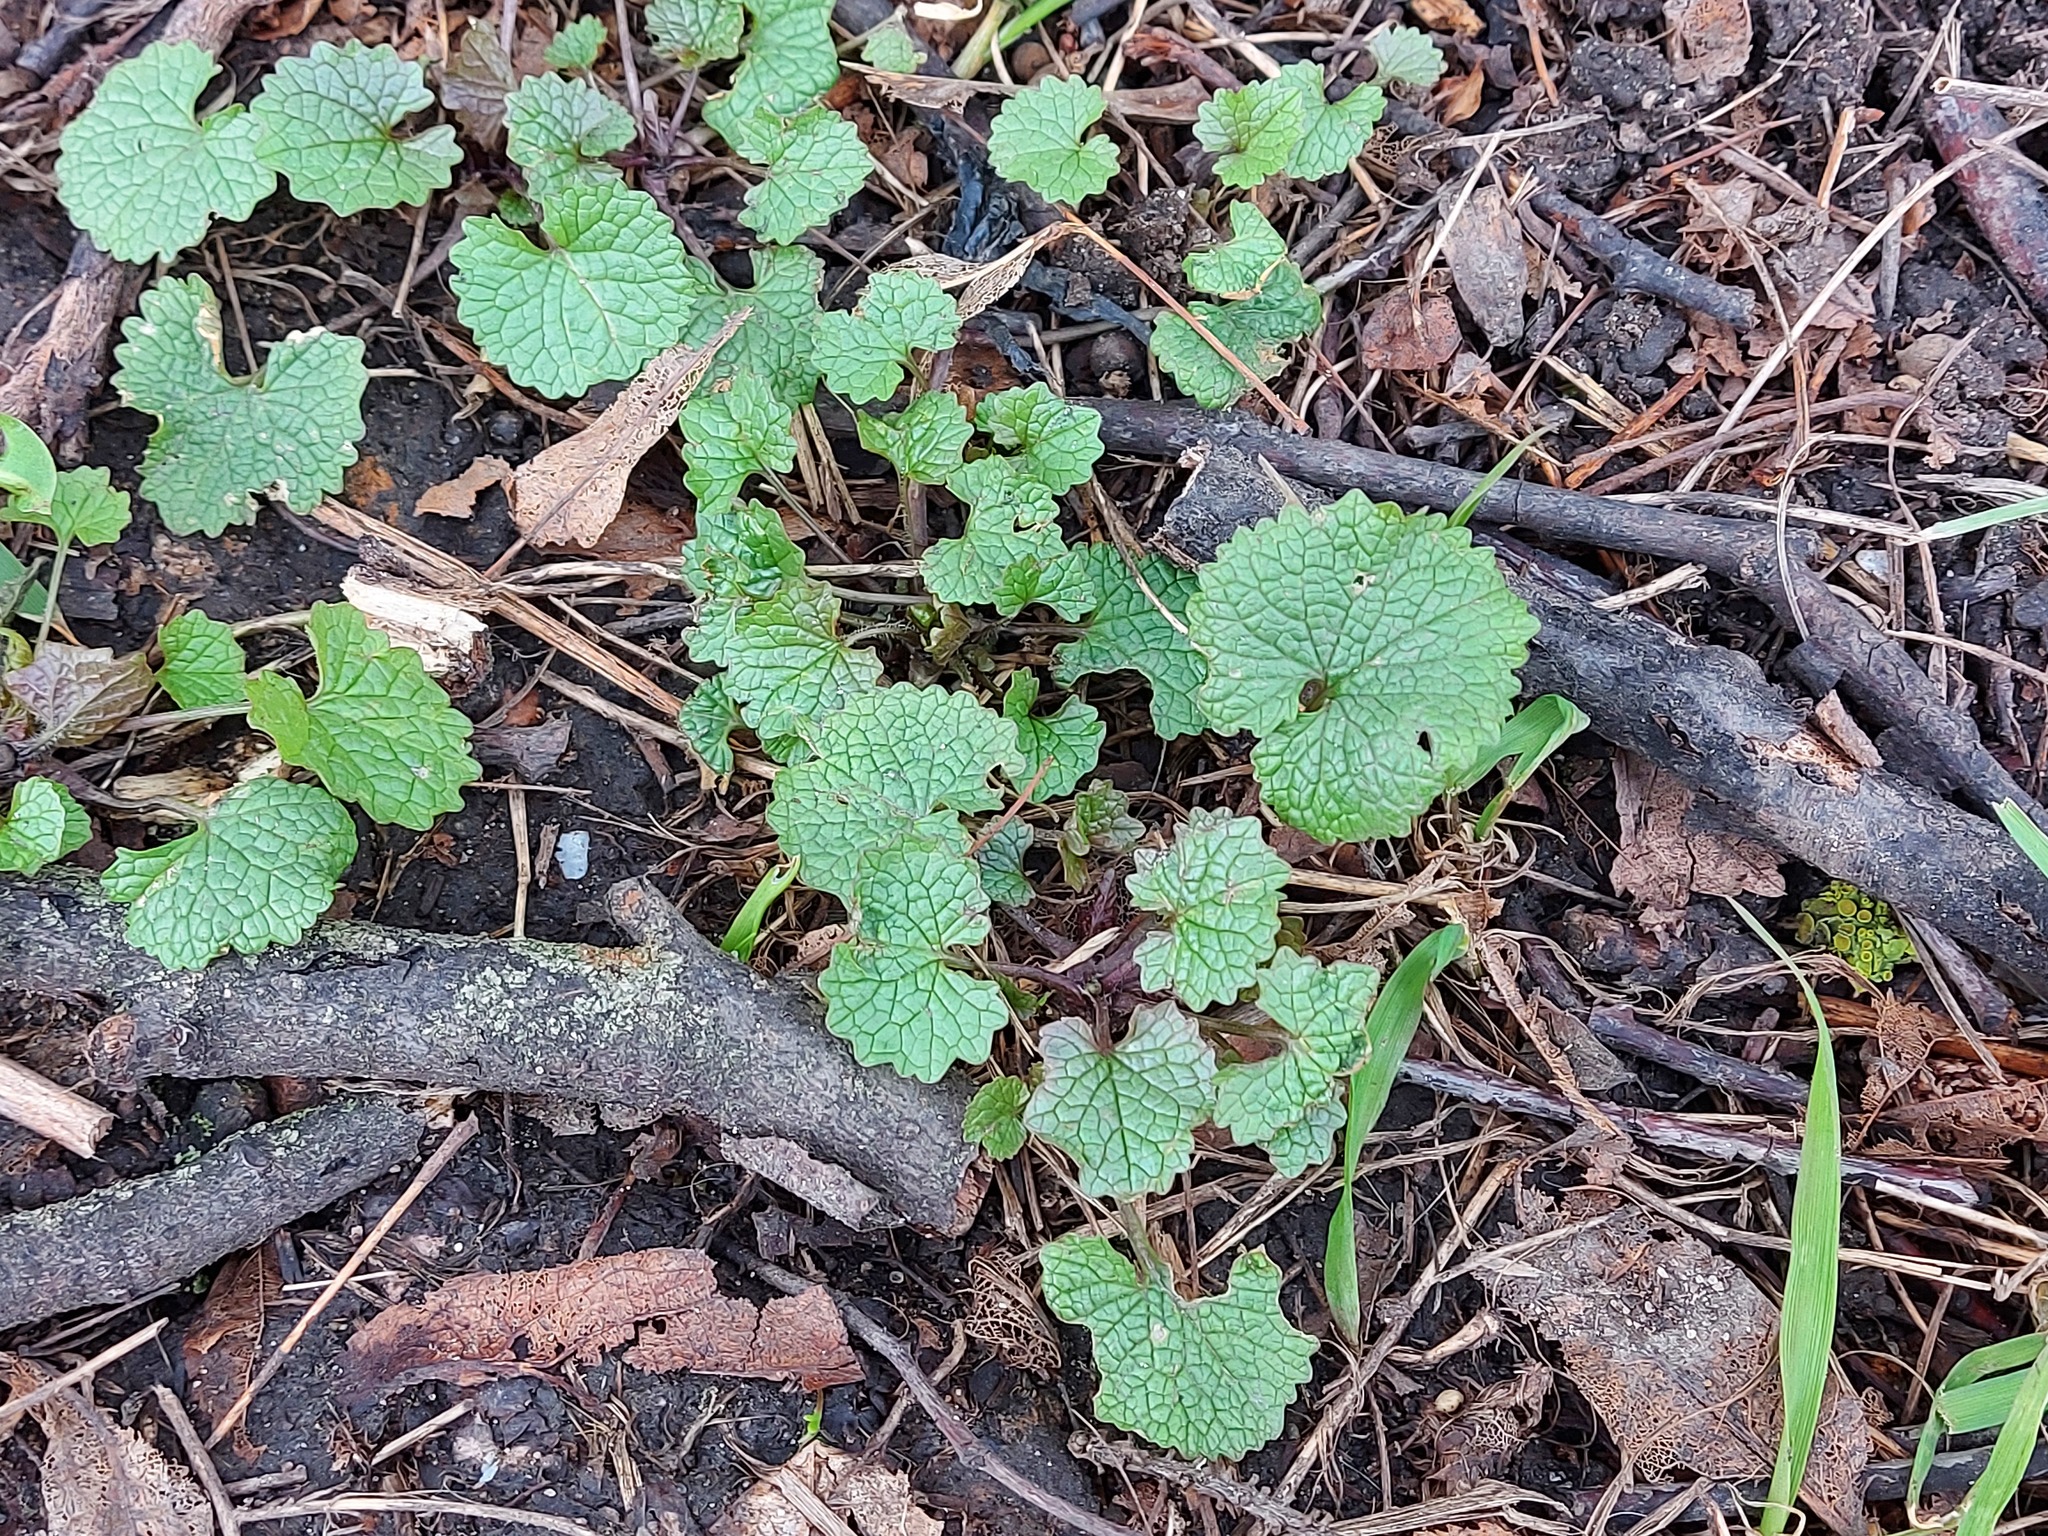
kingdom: Plantae
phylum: Tracheophyta
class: Magnoliopsida
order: Brassicales
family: Brassicaceae
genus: Alliaria
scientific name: Alliaria petiolata
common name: Garlic mustard
